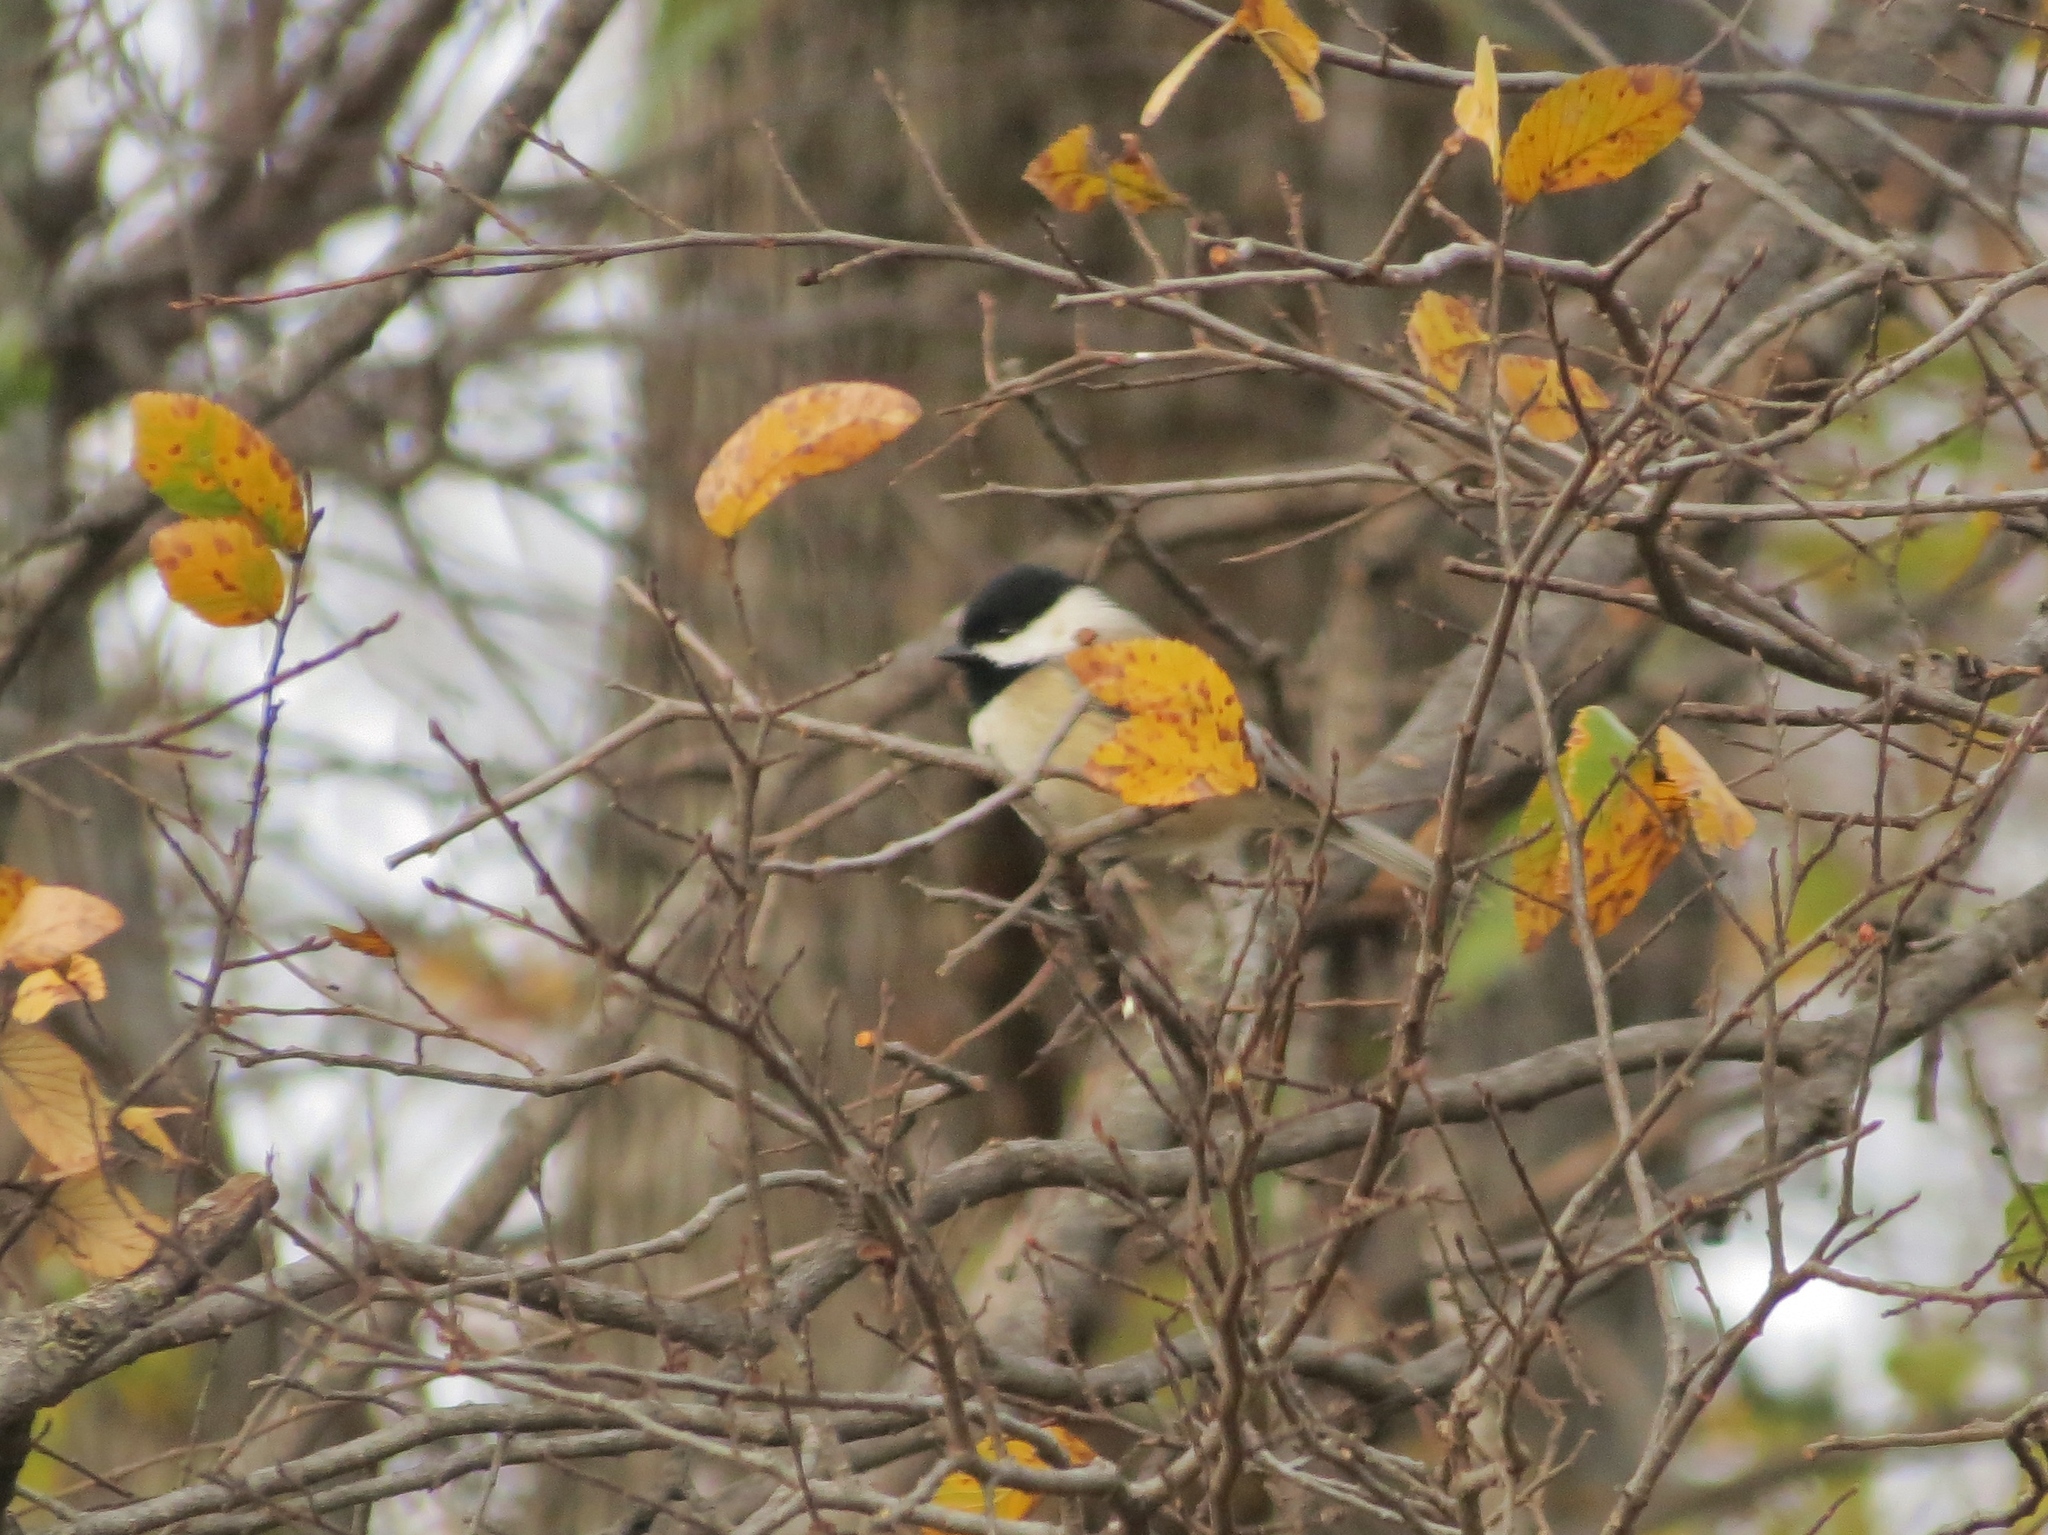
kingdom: Animalia
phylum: Chordata
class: Aves
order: Passeriformes
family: Paridae
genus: Poecile
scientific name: Poecile carolinensis
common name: Carolina chickadee
